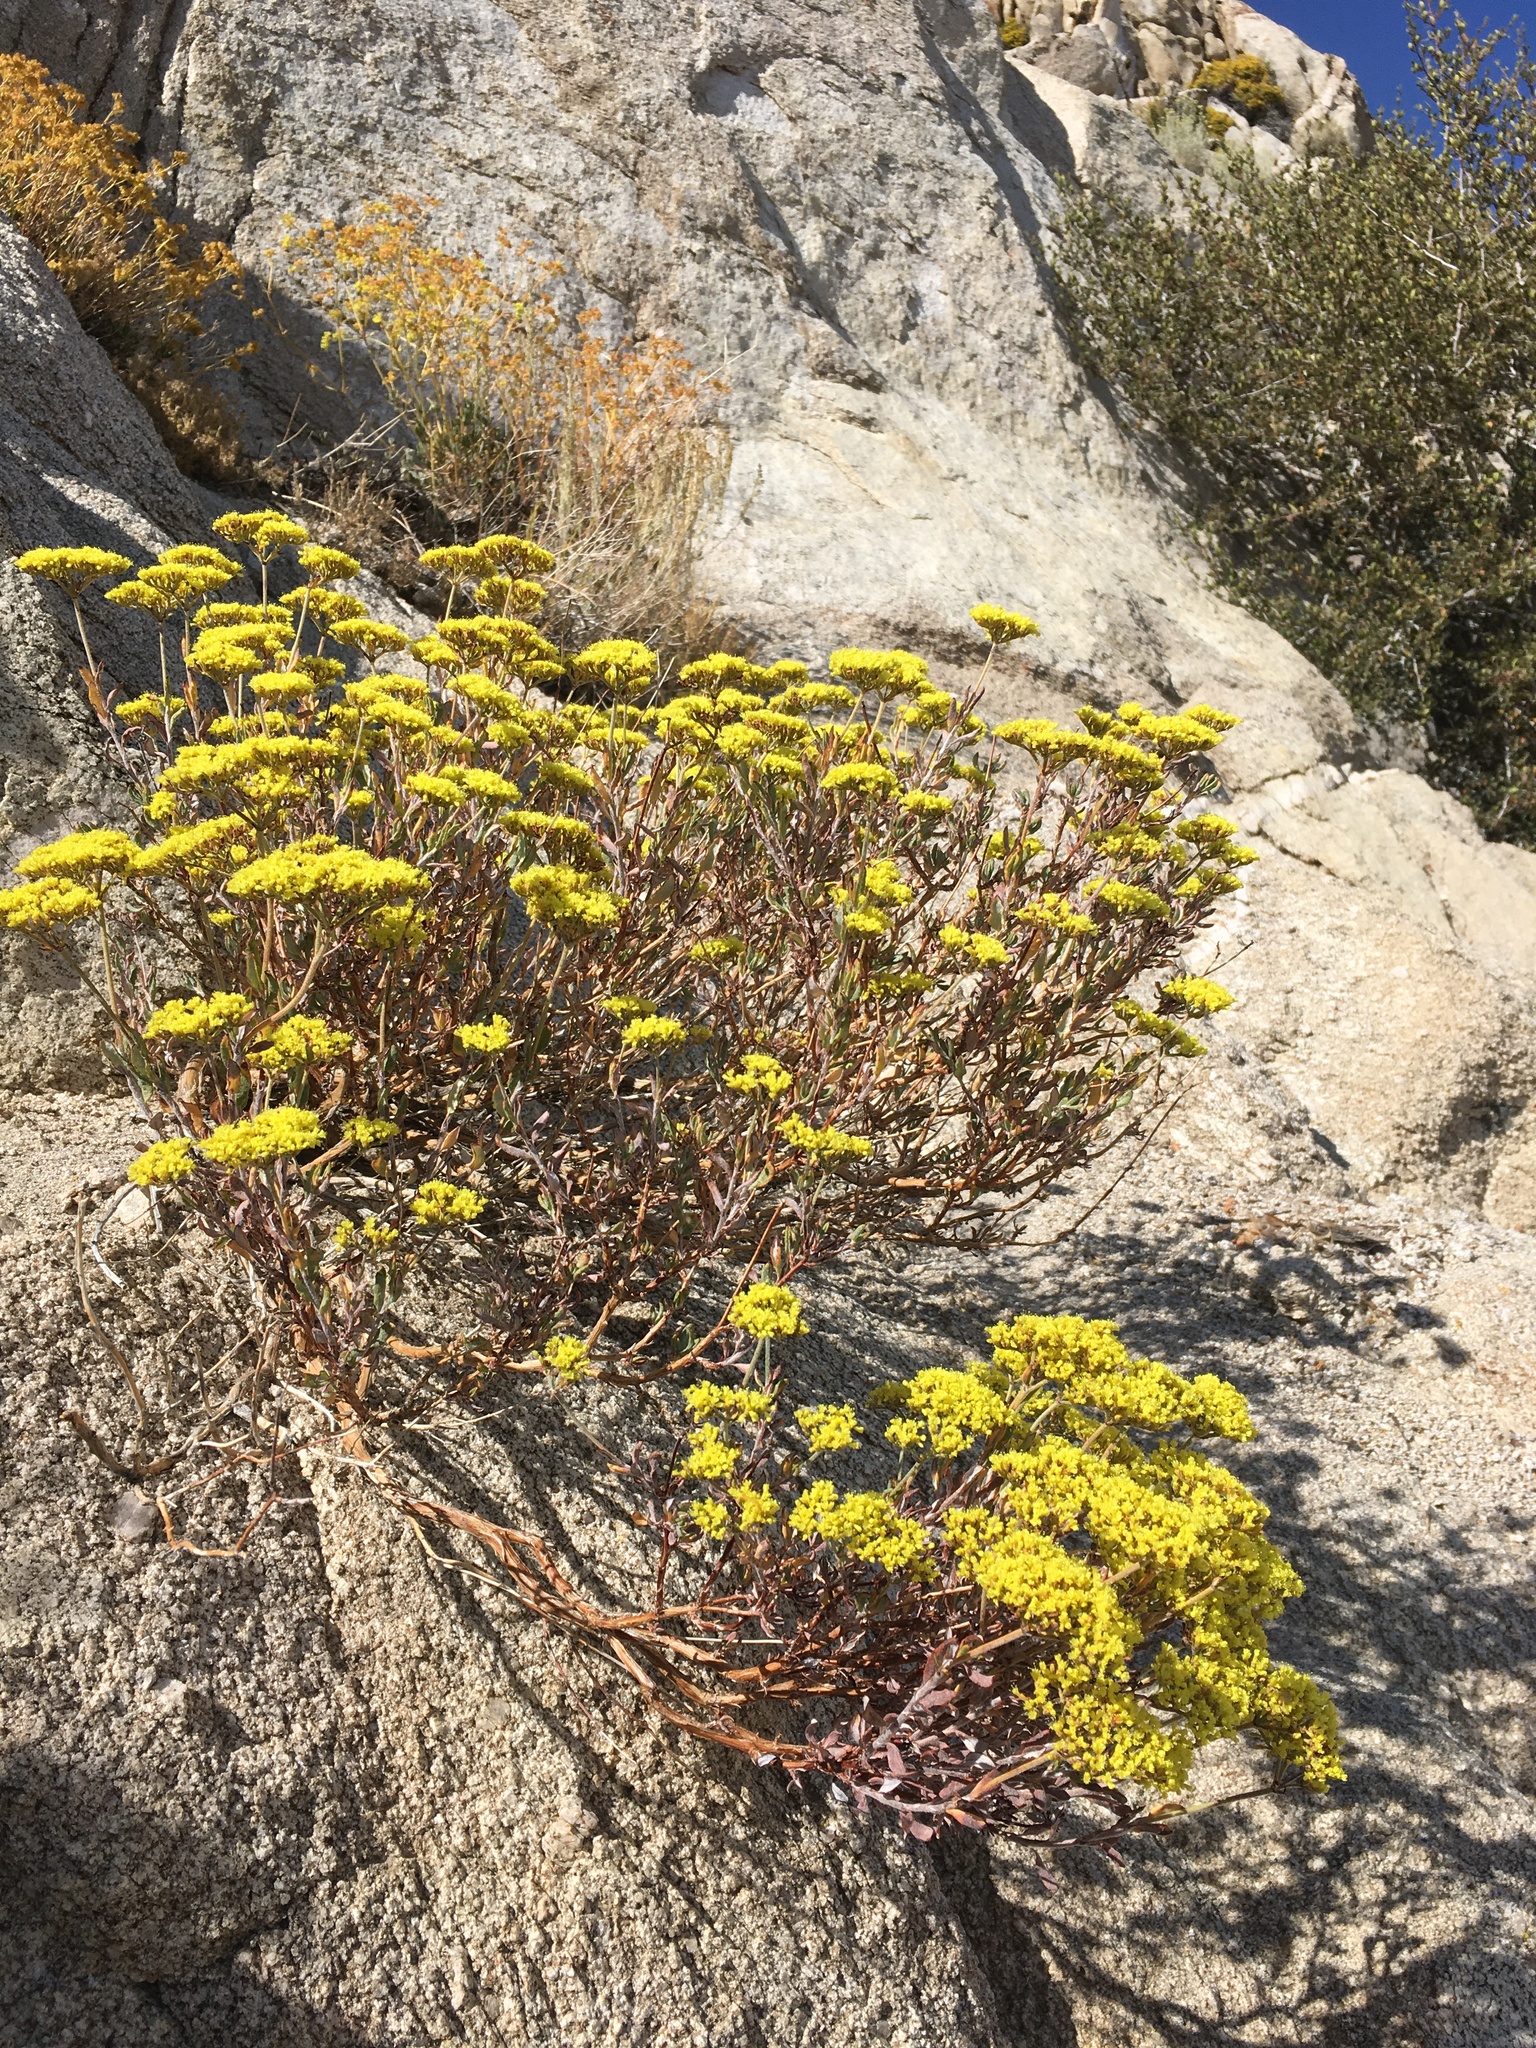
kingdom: Plantae
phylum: Tracheophyta
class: Magnoliopsida
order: Caryophyllales
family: Polygonaceae
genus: Eriogonum
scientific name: Eriogonum microtheca
